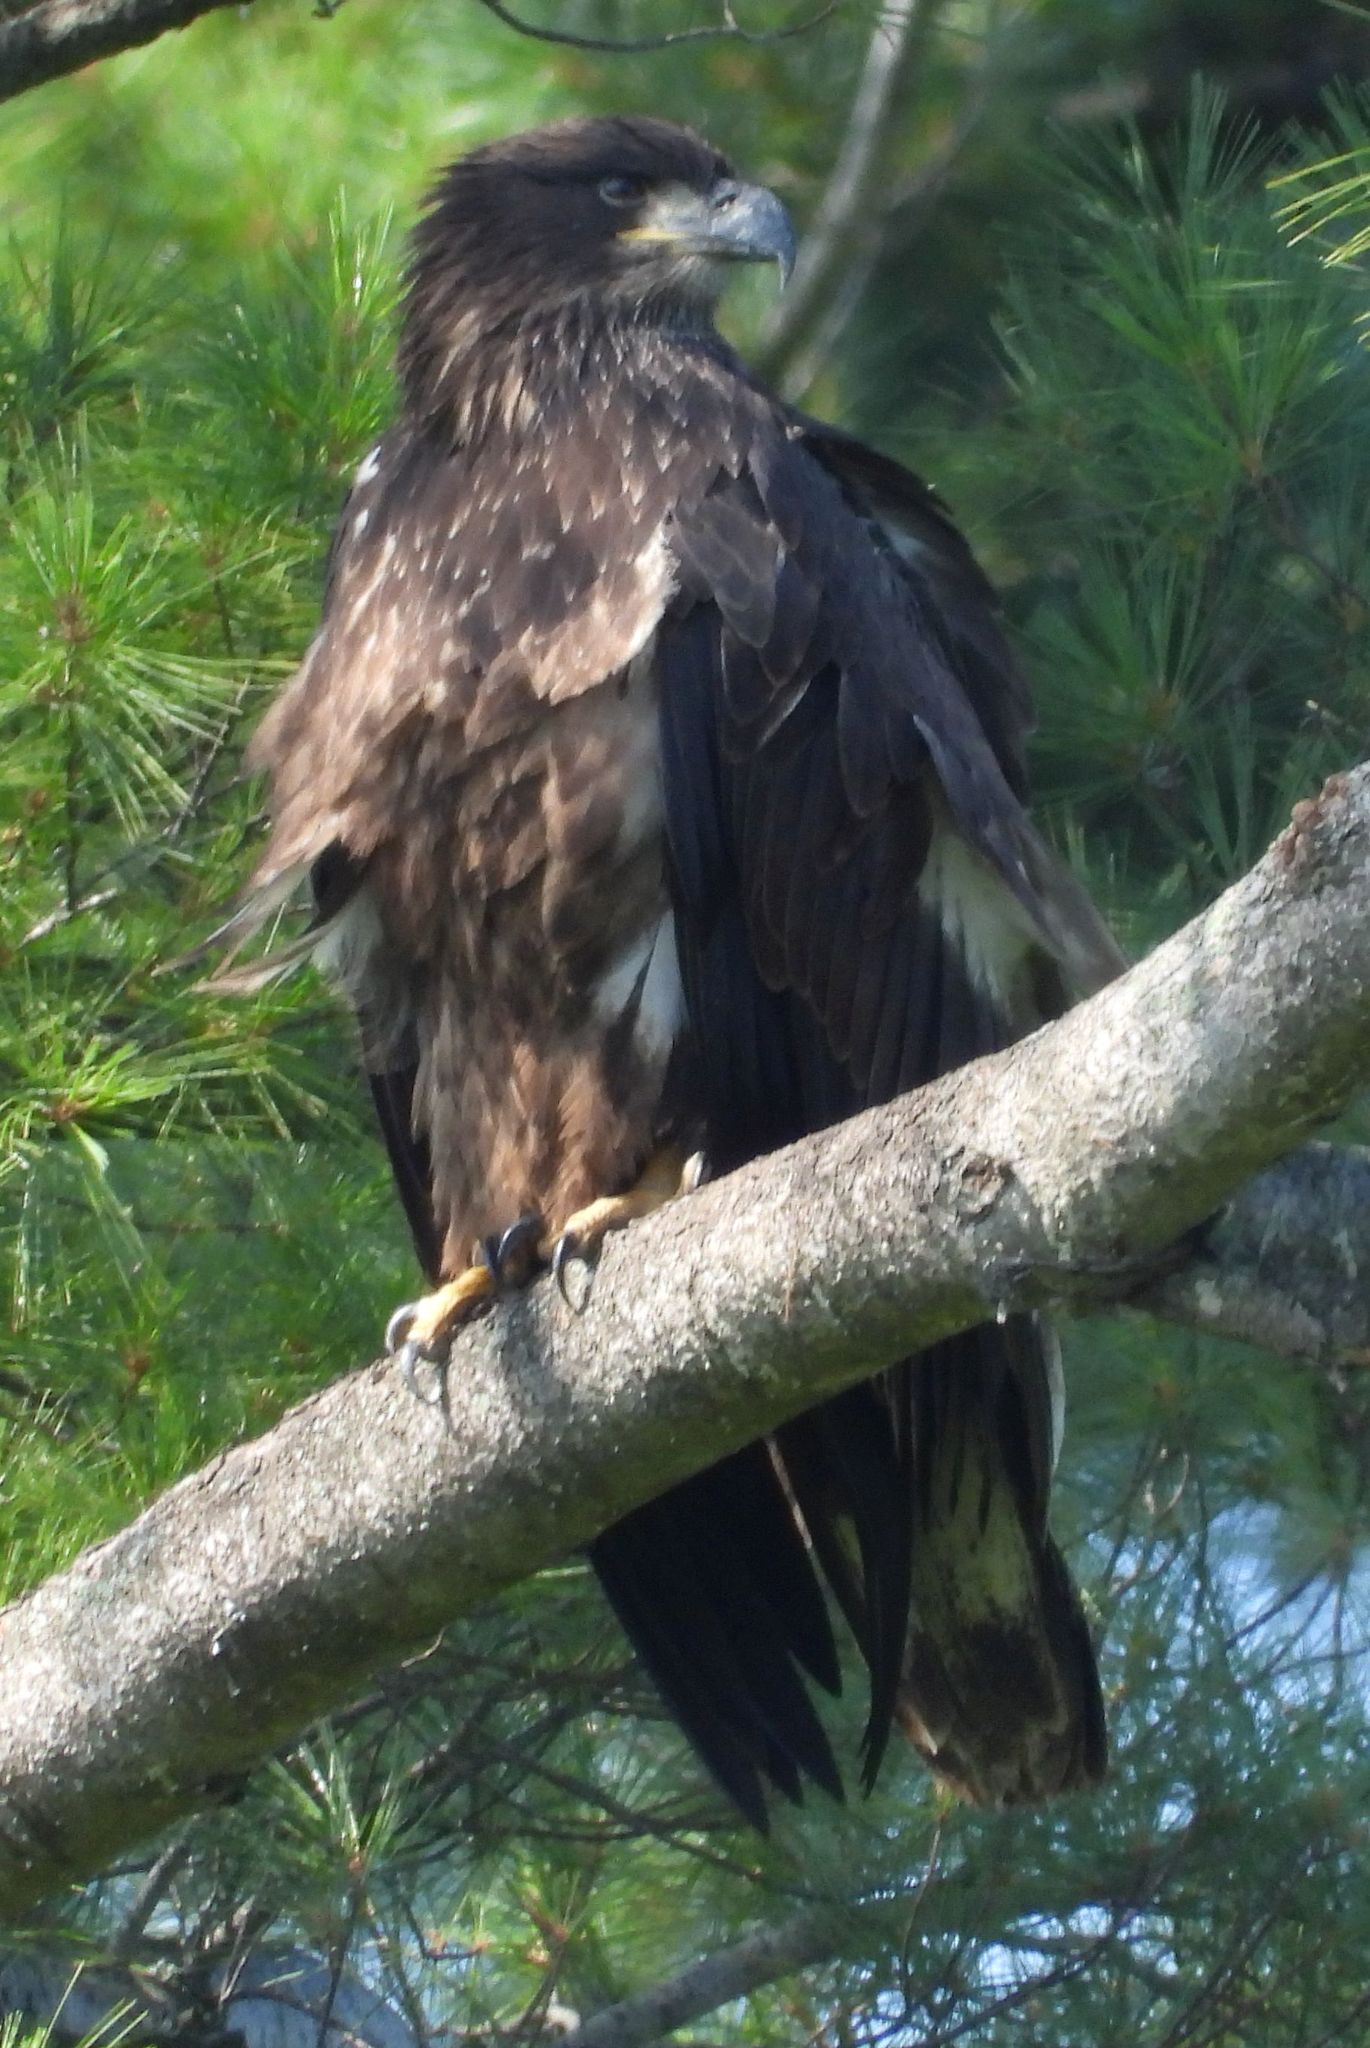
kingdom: Animalia
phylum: Chordata
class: Aves
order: Accipitriformes
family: Accipitridae
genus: Haliaeetus
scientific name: Haliaeetus leucocephalus
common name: Bald eagle
